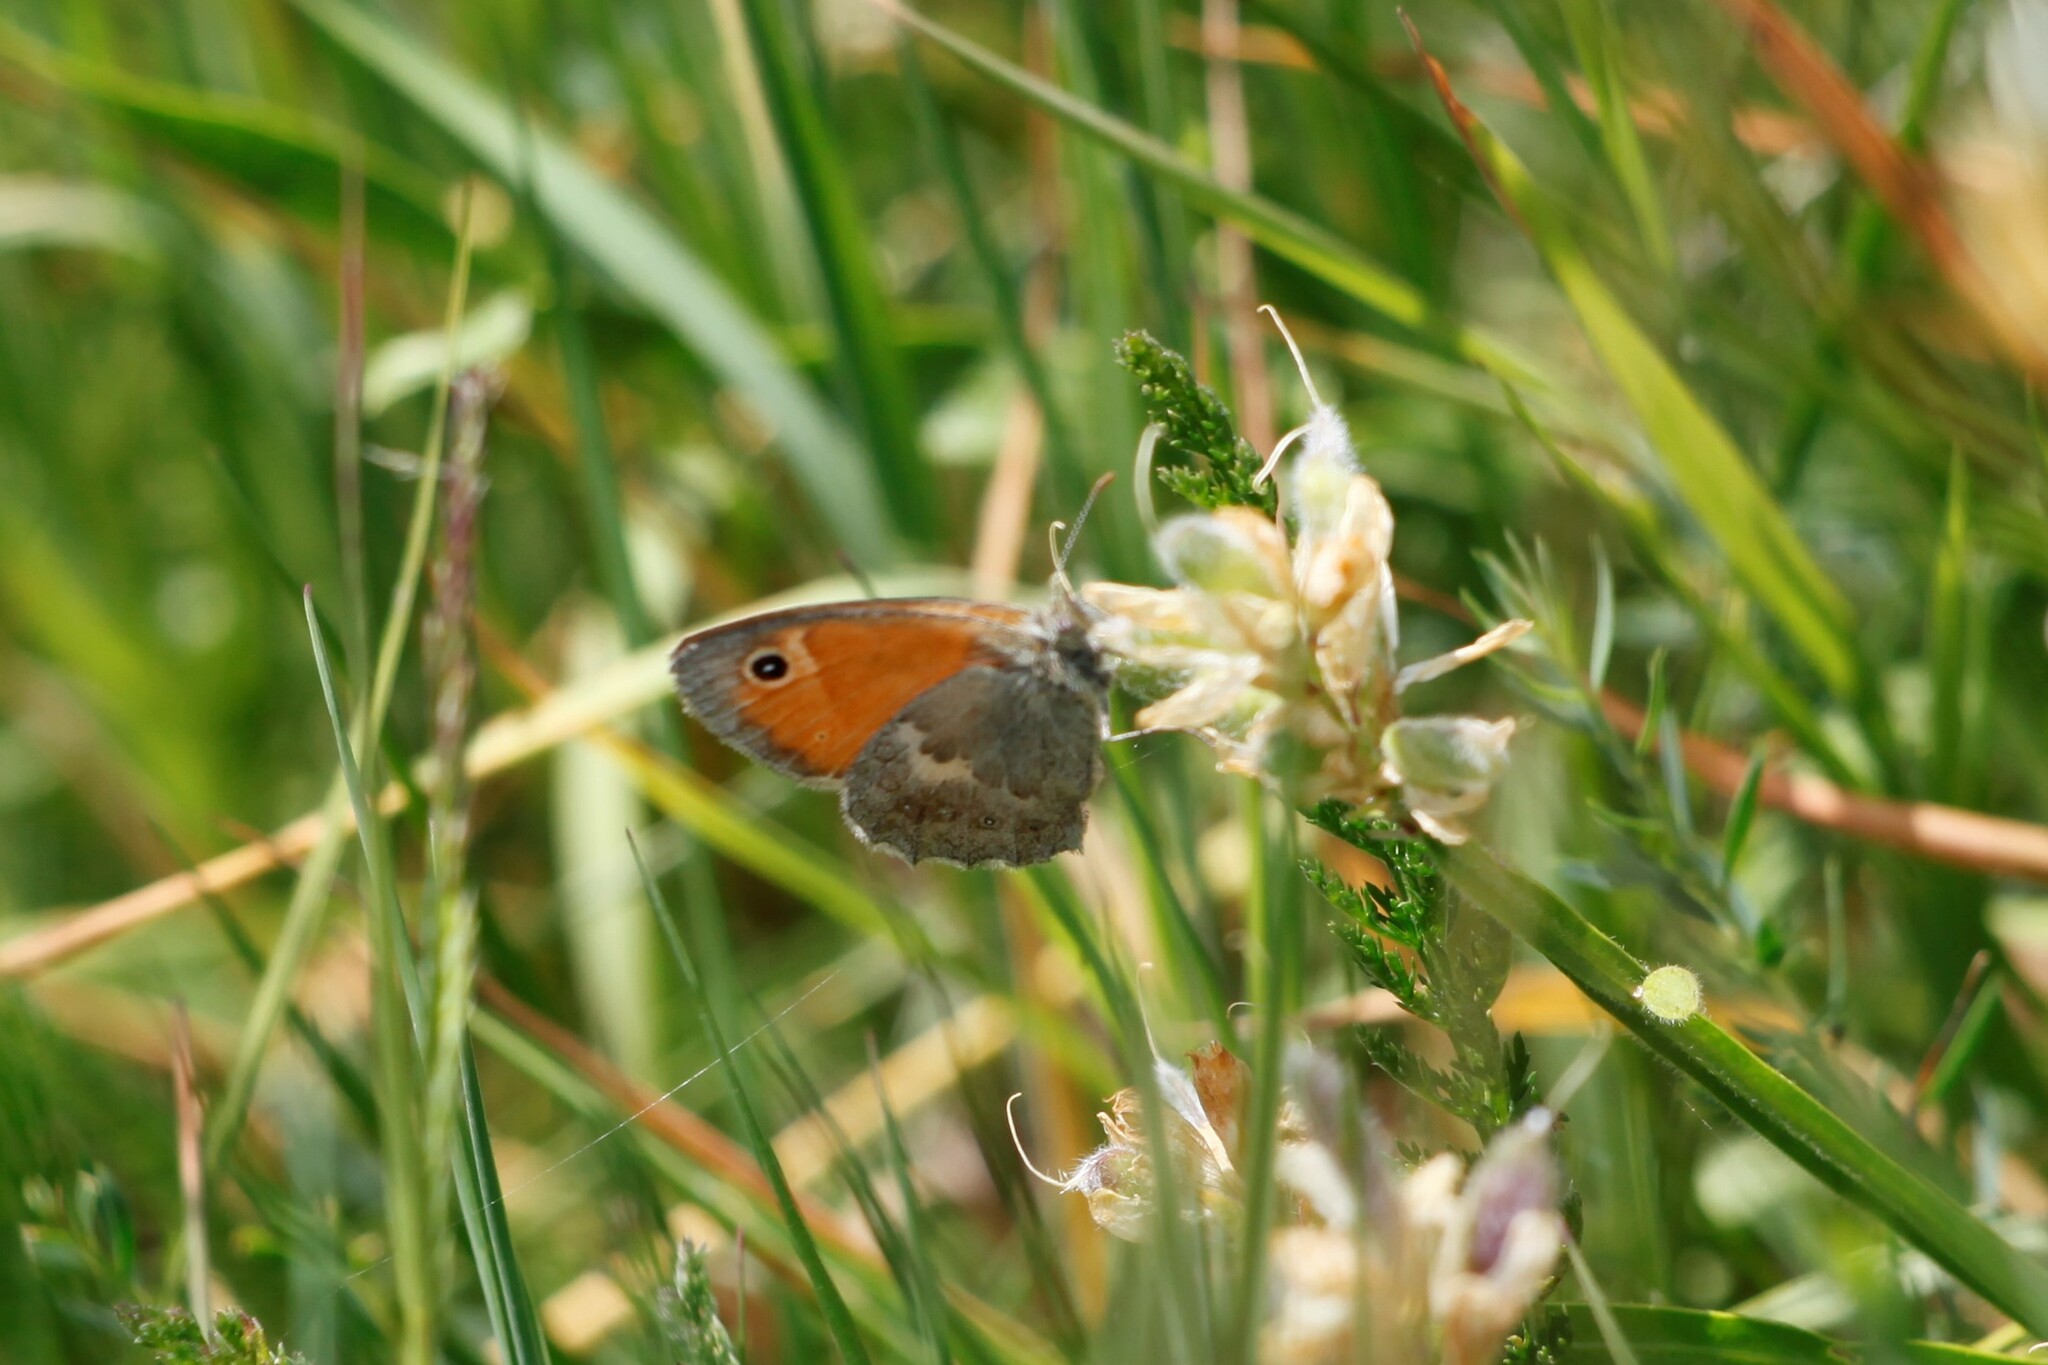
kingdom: Animalia
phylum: Arthropoda
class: Insecta
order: Lepidoptera
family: Nymphalidae
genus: Coenonympha
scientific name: Coenonympha pamphilus
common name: Small heath
